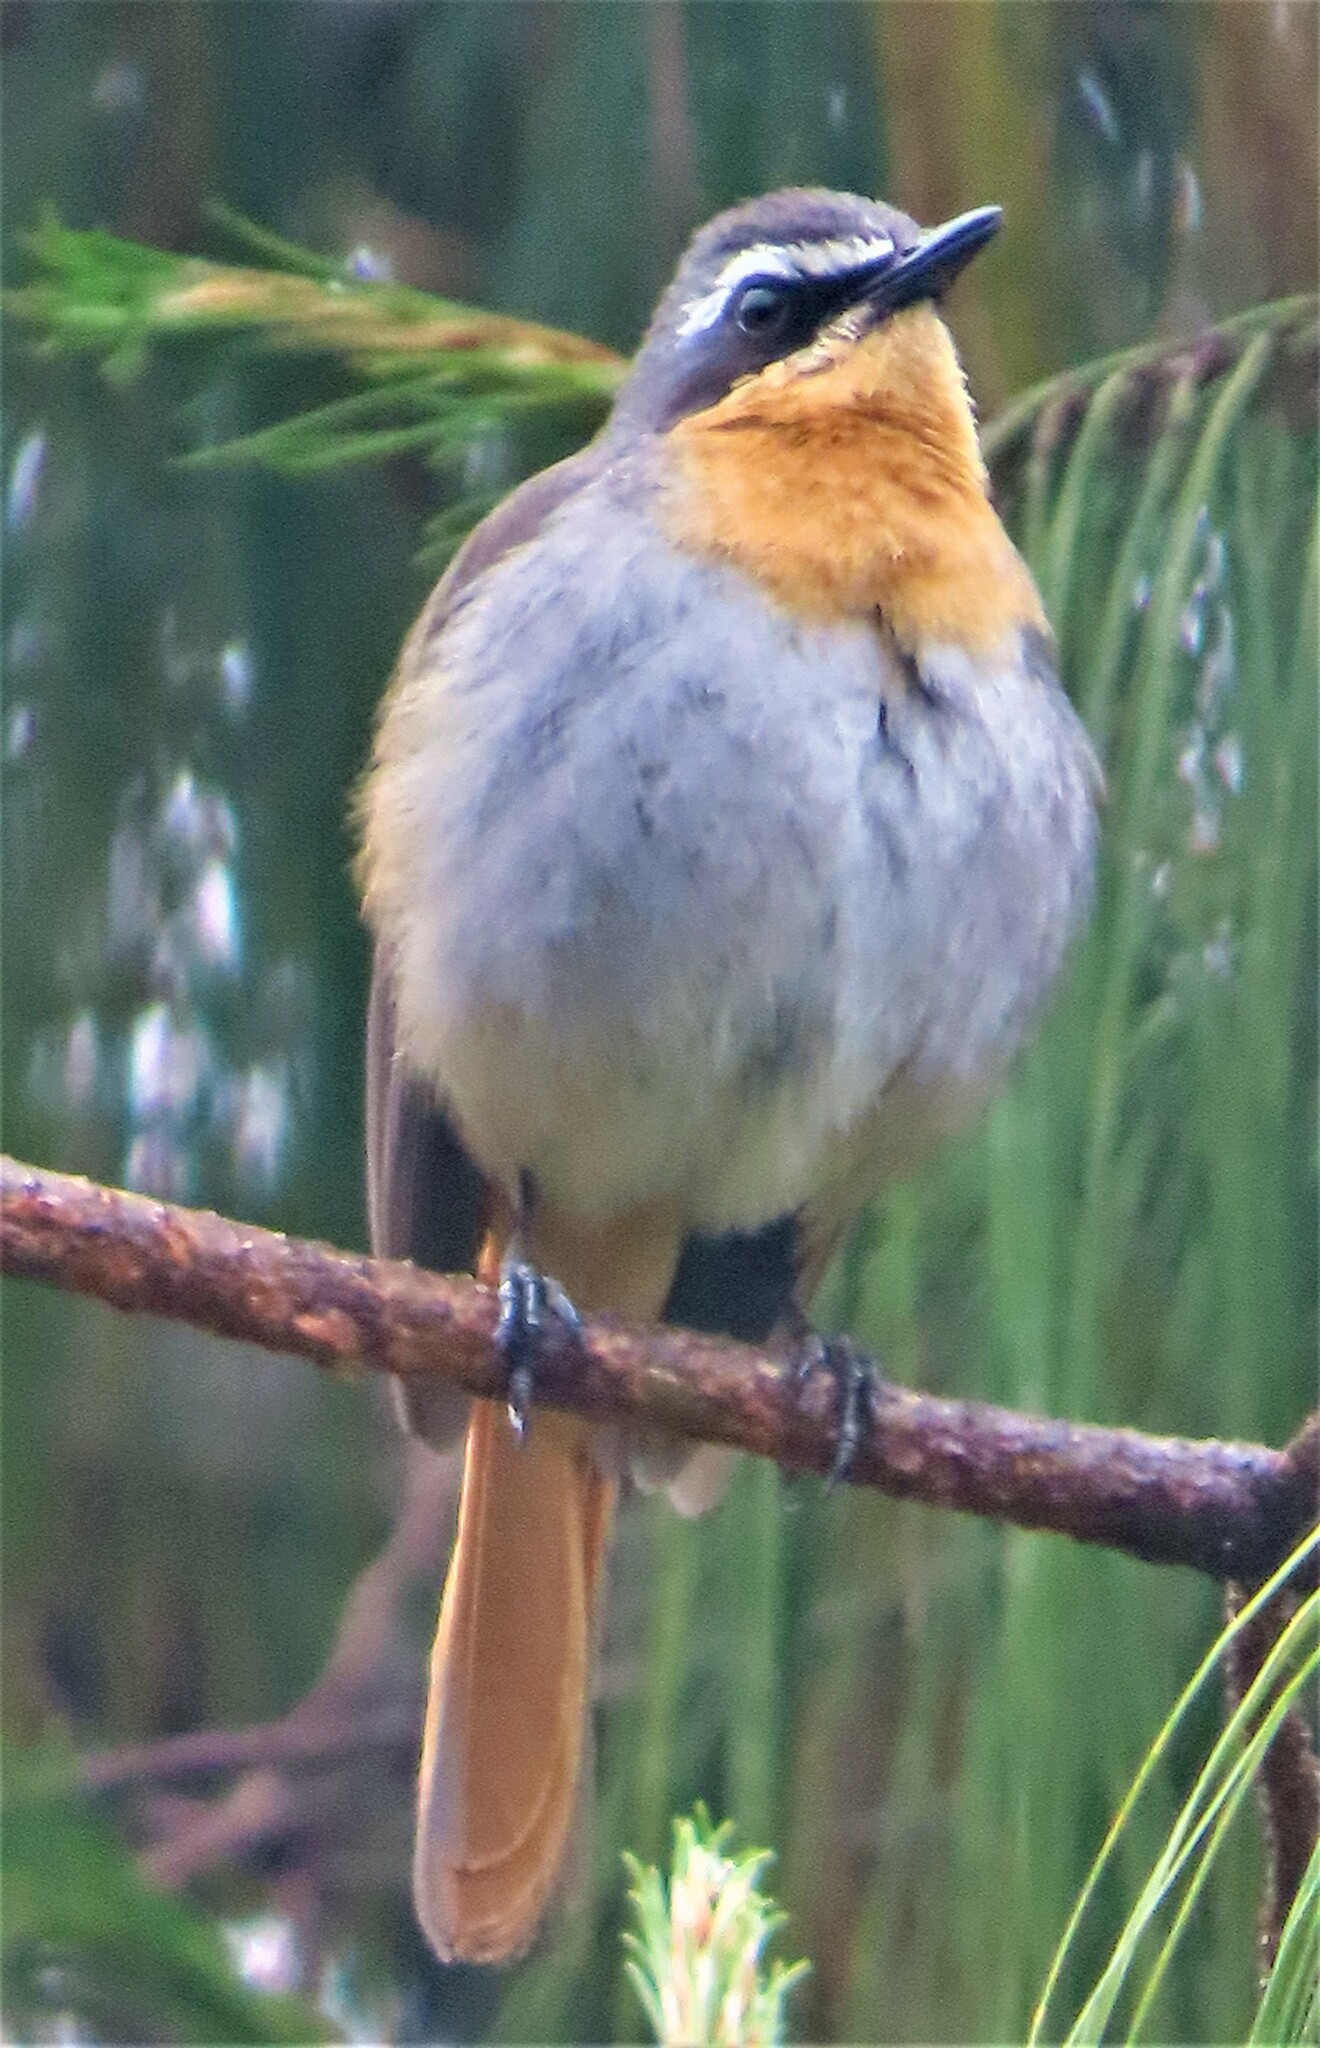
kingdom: Animalia
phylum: Chordata
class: Aves
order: Passeriformes
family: Muscicapidae
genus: Cossypha
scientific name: Cossypha caffra
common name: Cape robin-chat
